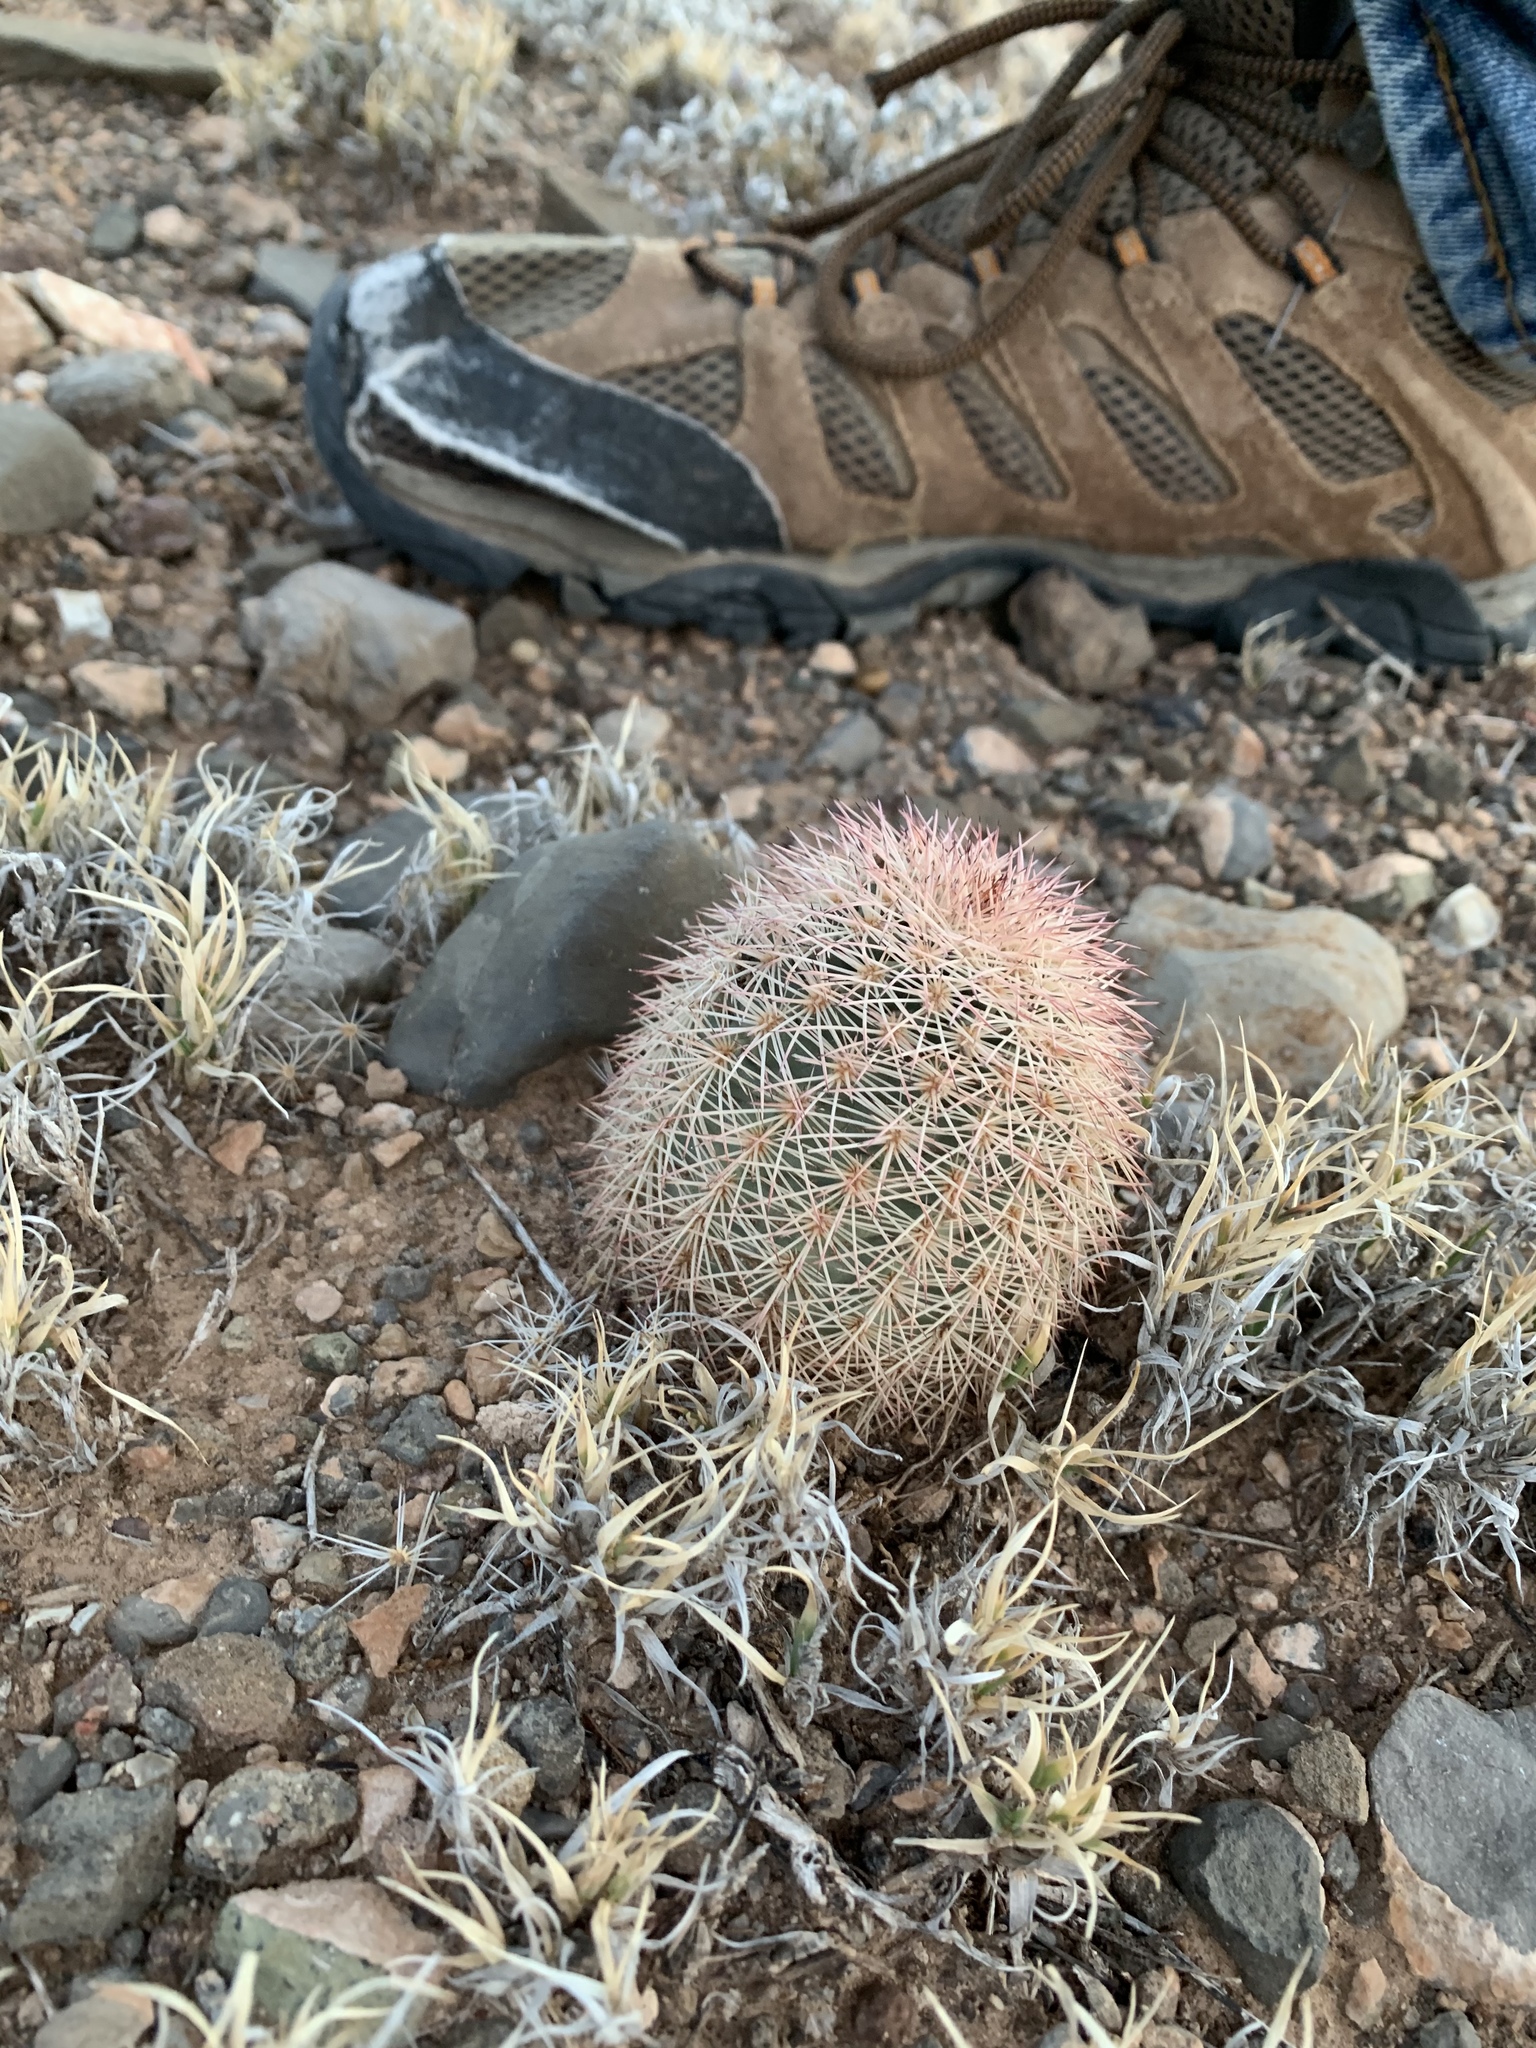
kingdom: Plantae
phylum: Tracheophyta
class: Magnoliopsida
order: Caryophyllales
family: Cactaceae
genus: Echinocereus
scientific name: Echinocereus dasyacanthus
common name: Spiny hedgehog cactus
